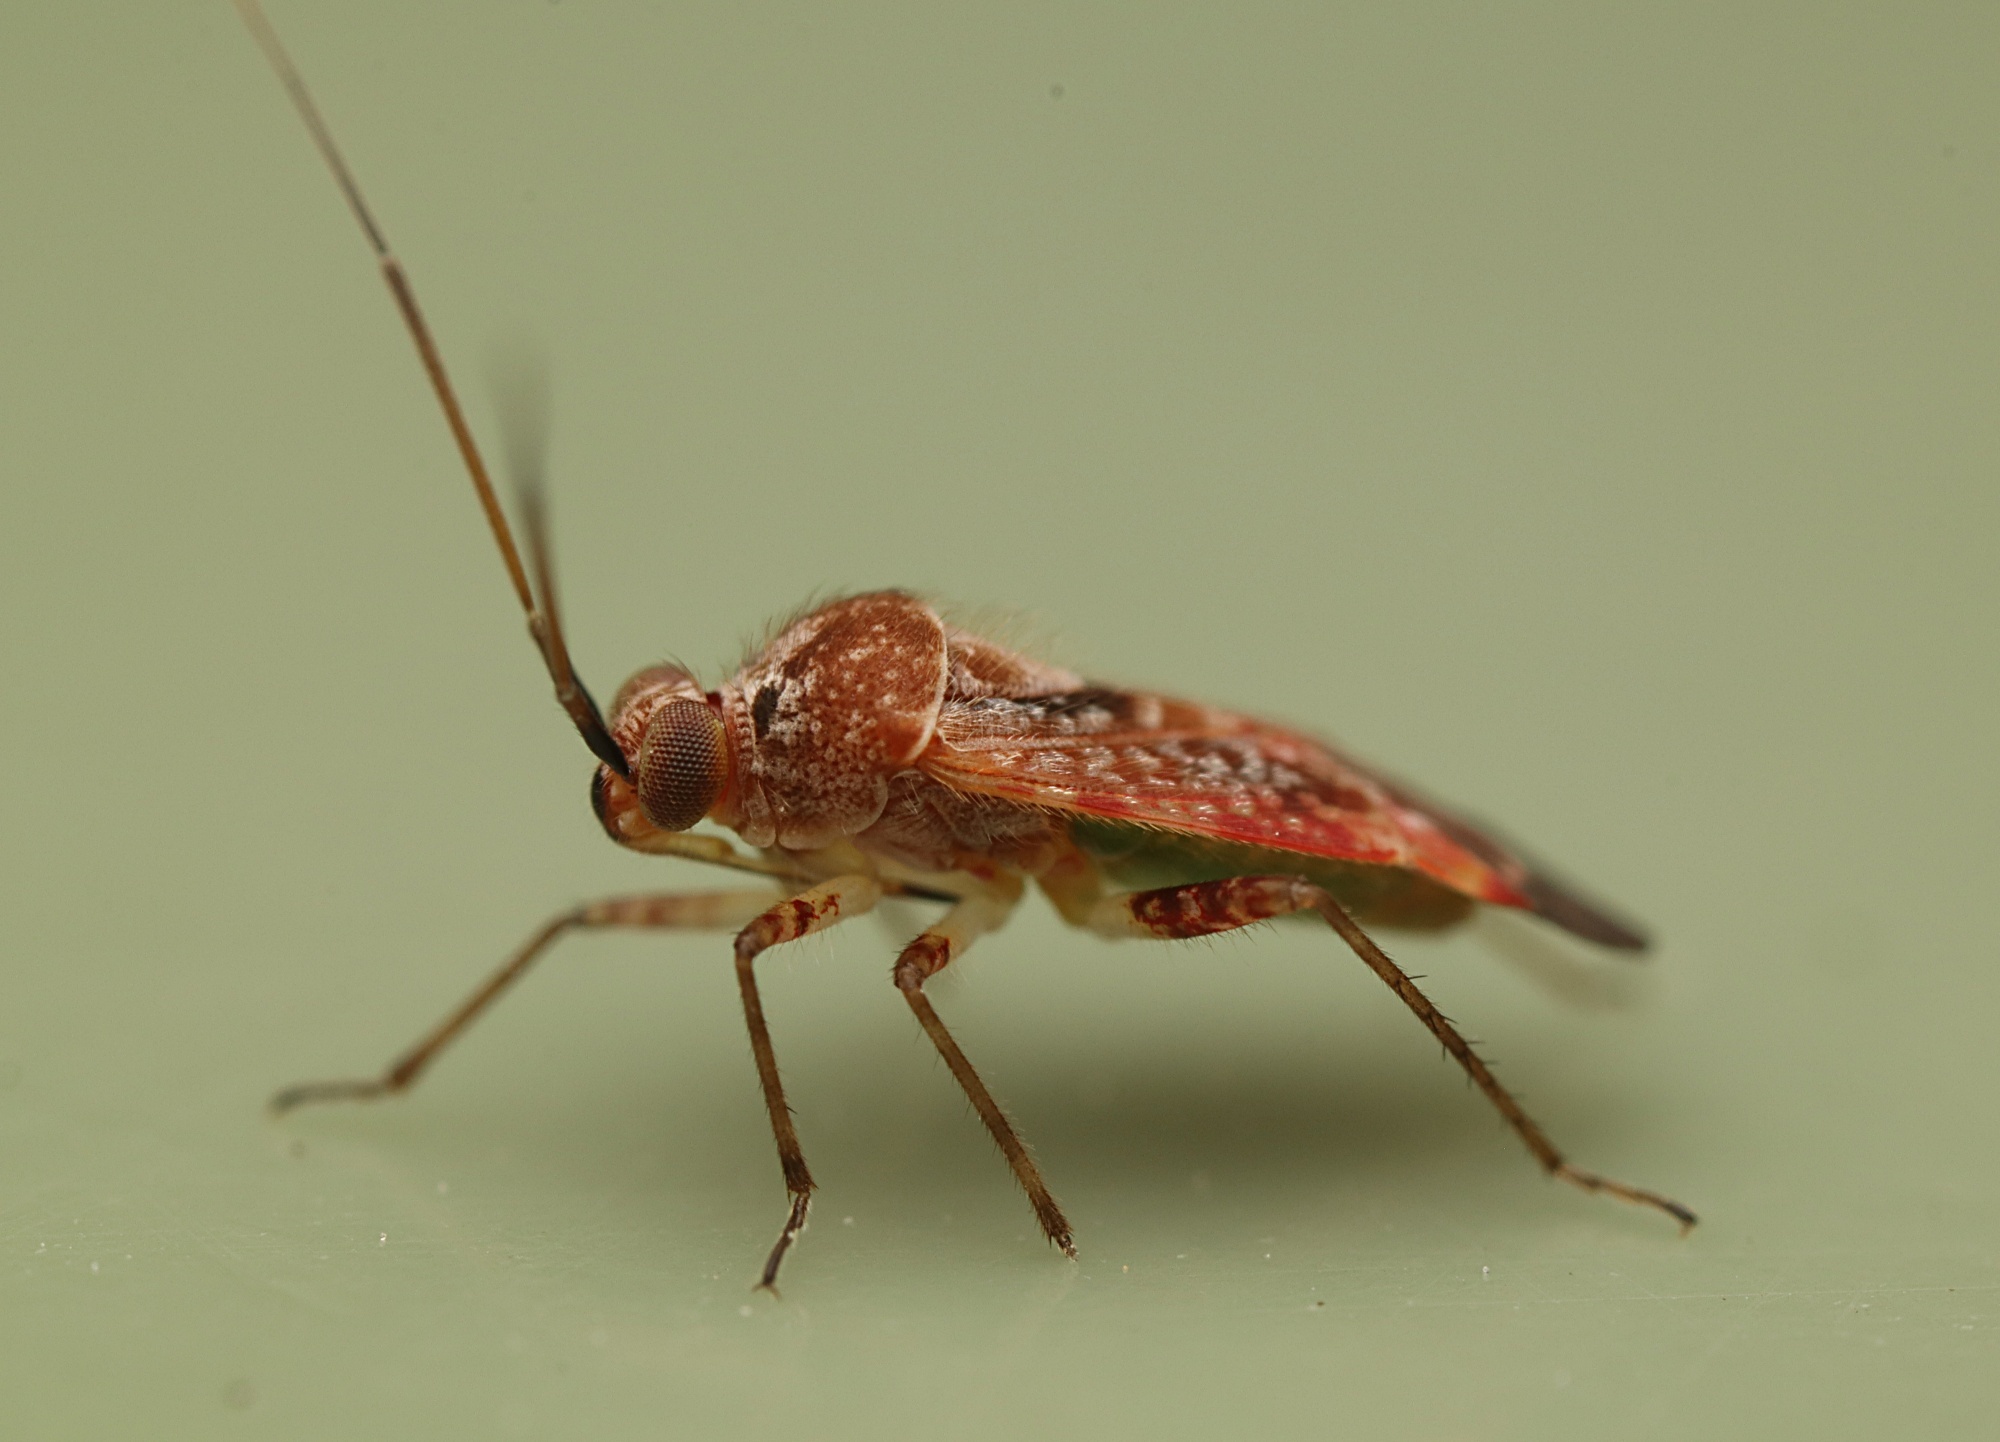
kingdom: Animalia
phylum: Arthropoda
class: Insecta
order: Hemiptera
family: Miridae
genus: Tinginotum
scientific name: Tinginotum minutum
